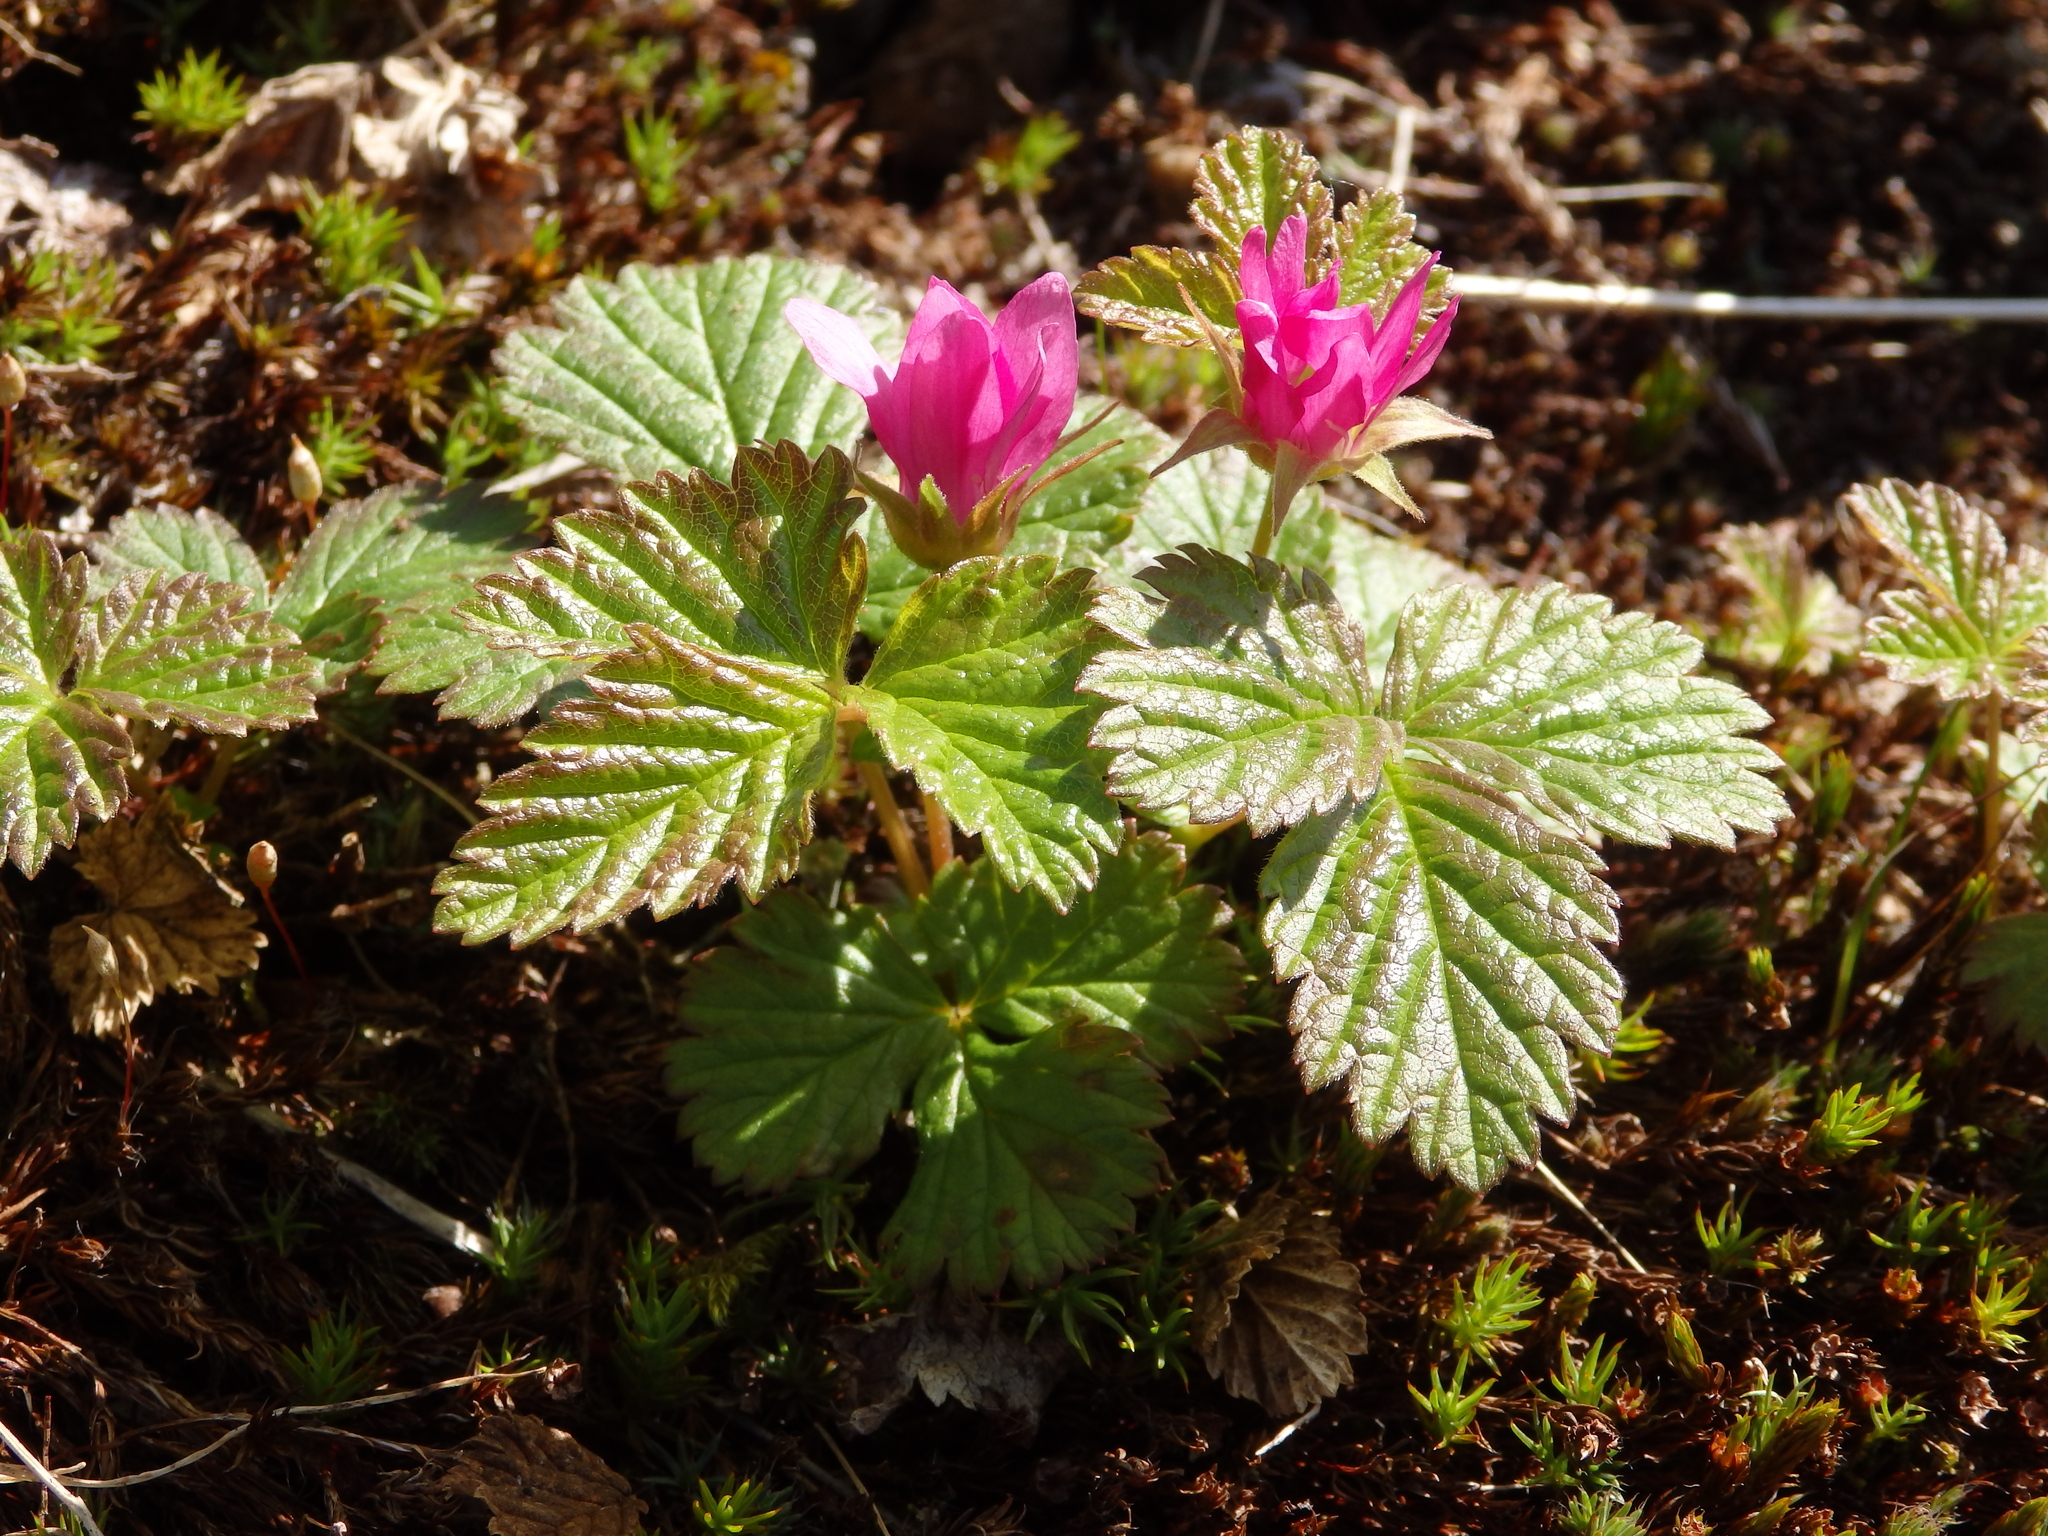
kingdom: Plantae
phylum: Tracheophyta
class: Magnoliopsida
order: Rosales
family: Rosaceae
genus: Rubus
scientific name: Rubus arcticus
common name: Arctic bramble
